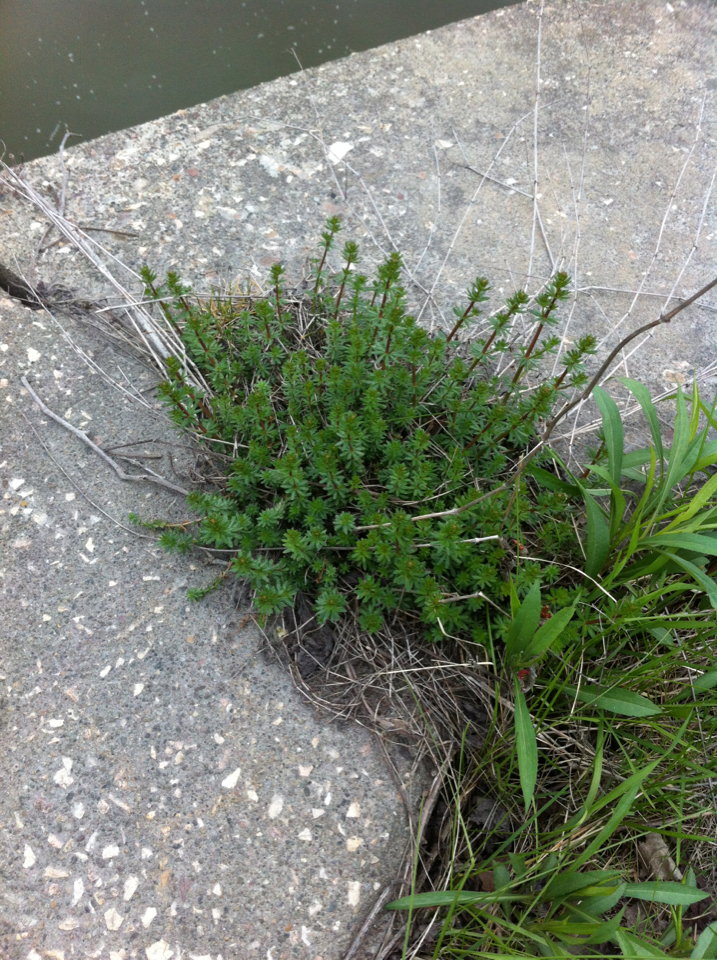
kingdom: Plantae
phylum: Tracheophyta
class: Magnoliopsida
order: Gentianales
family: Rubiaceae
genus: Galium
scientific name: Galium mollugo
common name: Hedge bedstraw
